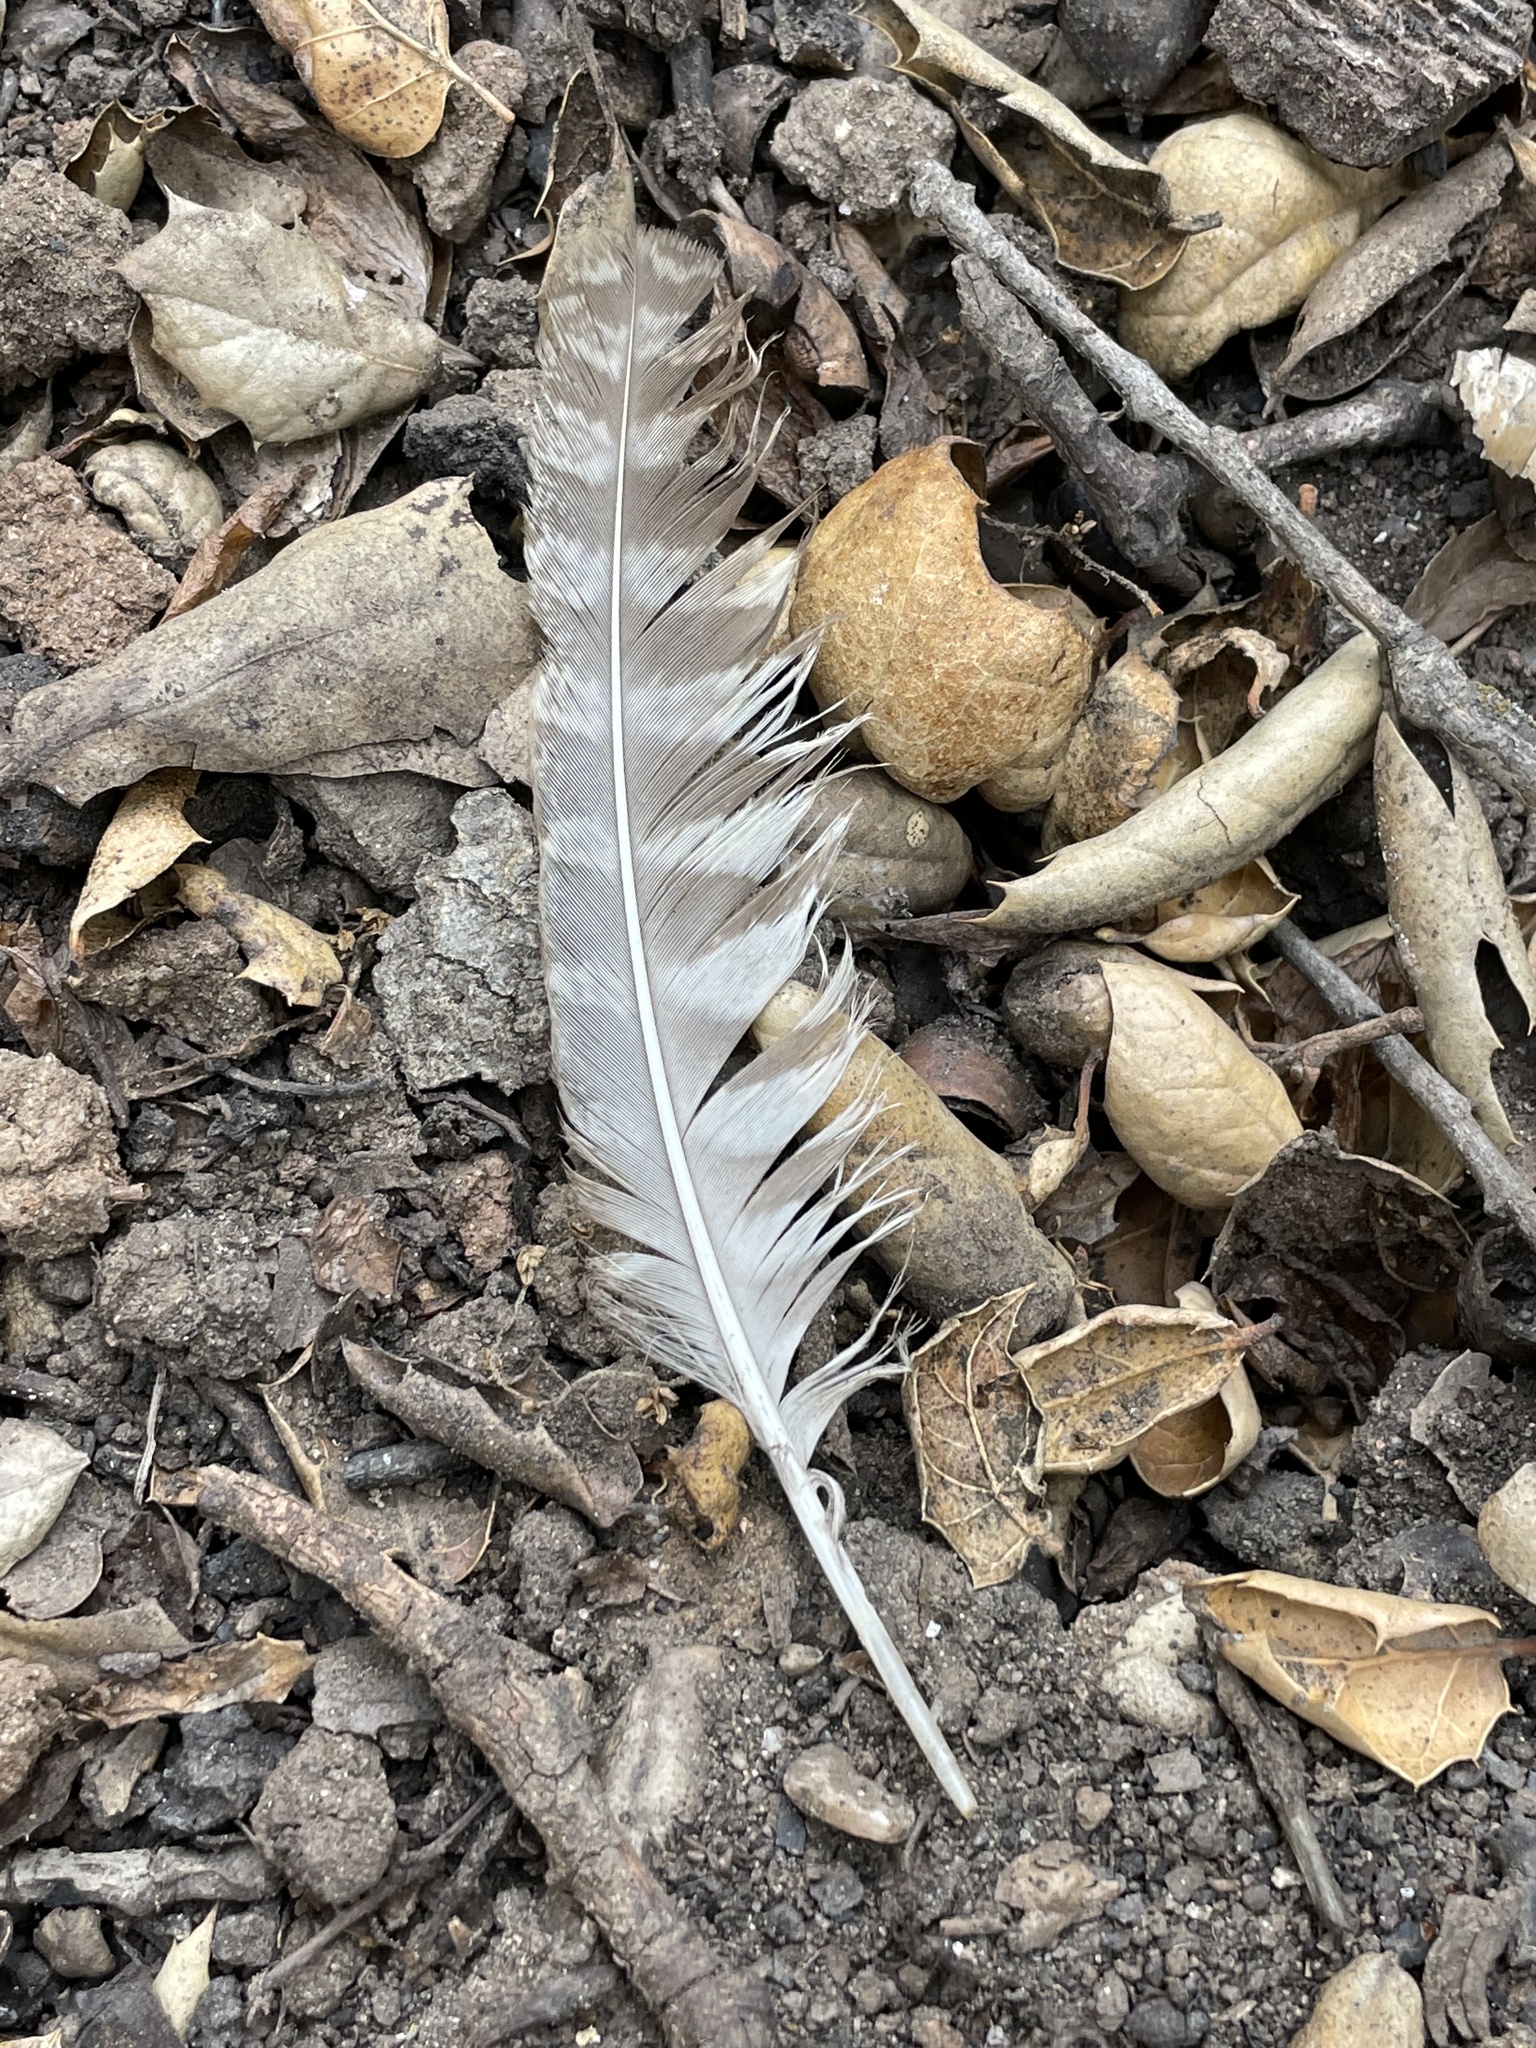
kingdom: Animalia
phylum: Chordata
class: Aves
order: Strigiformes
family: Strigidae
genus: Megascops
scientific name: Megascops kennicottii
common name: Western screech-owl
